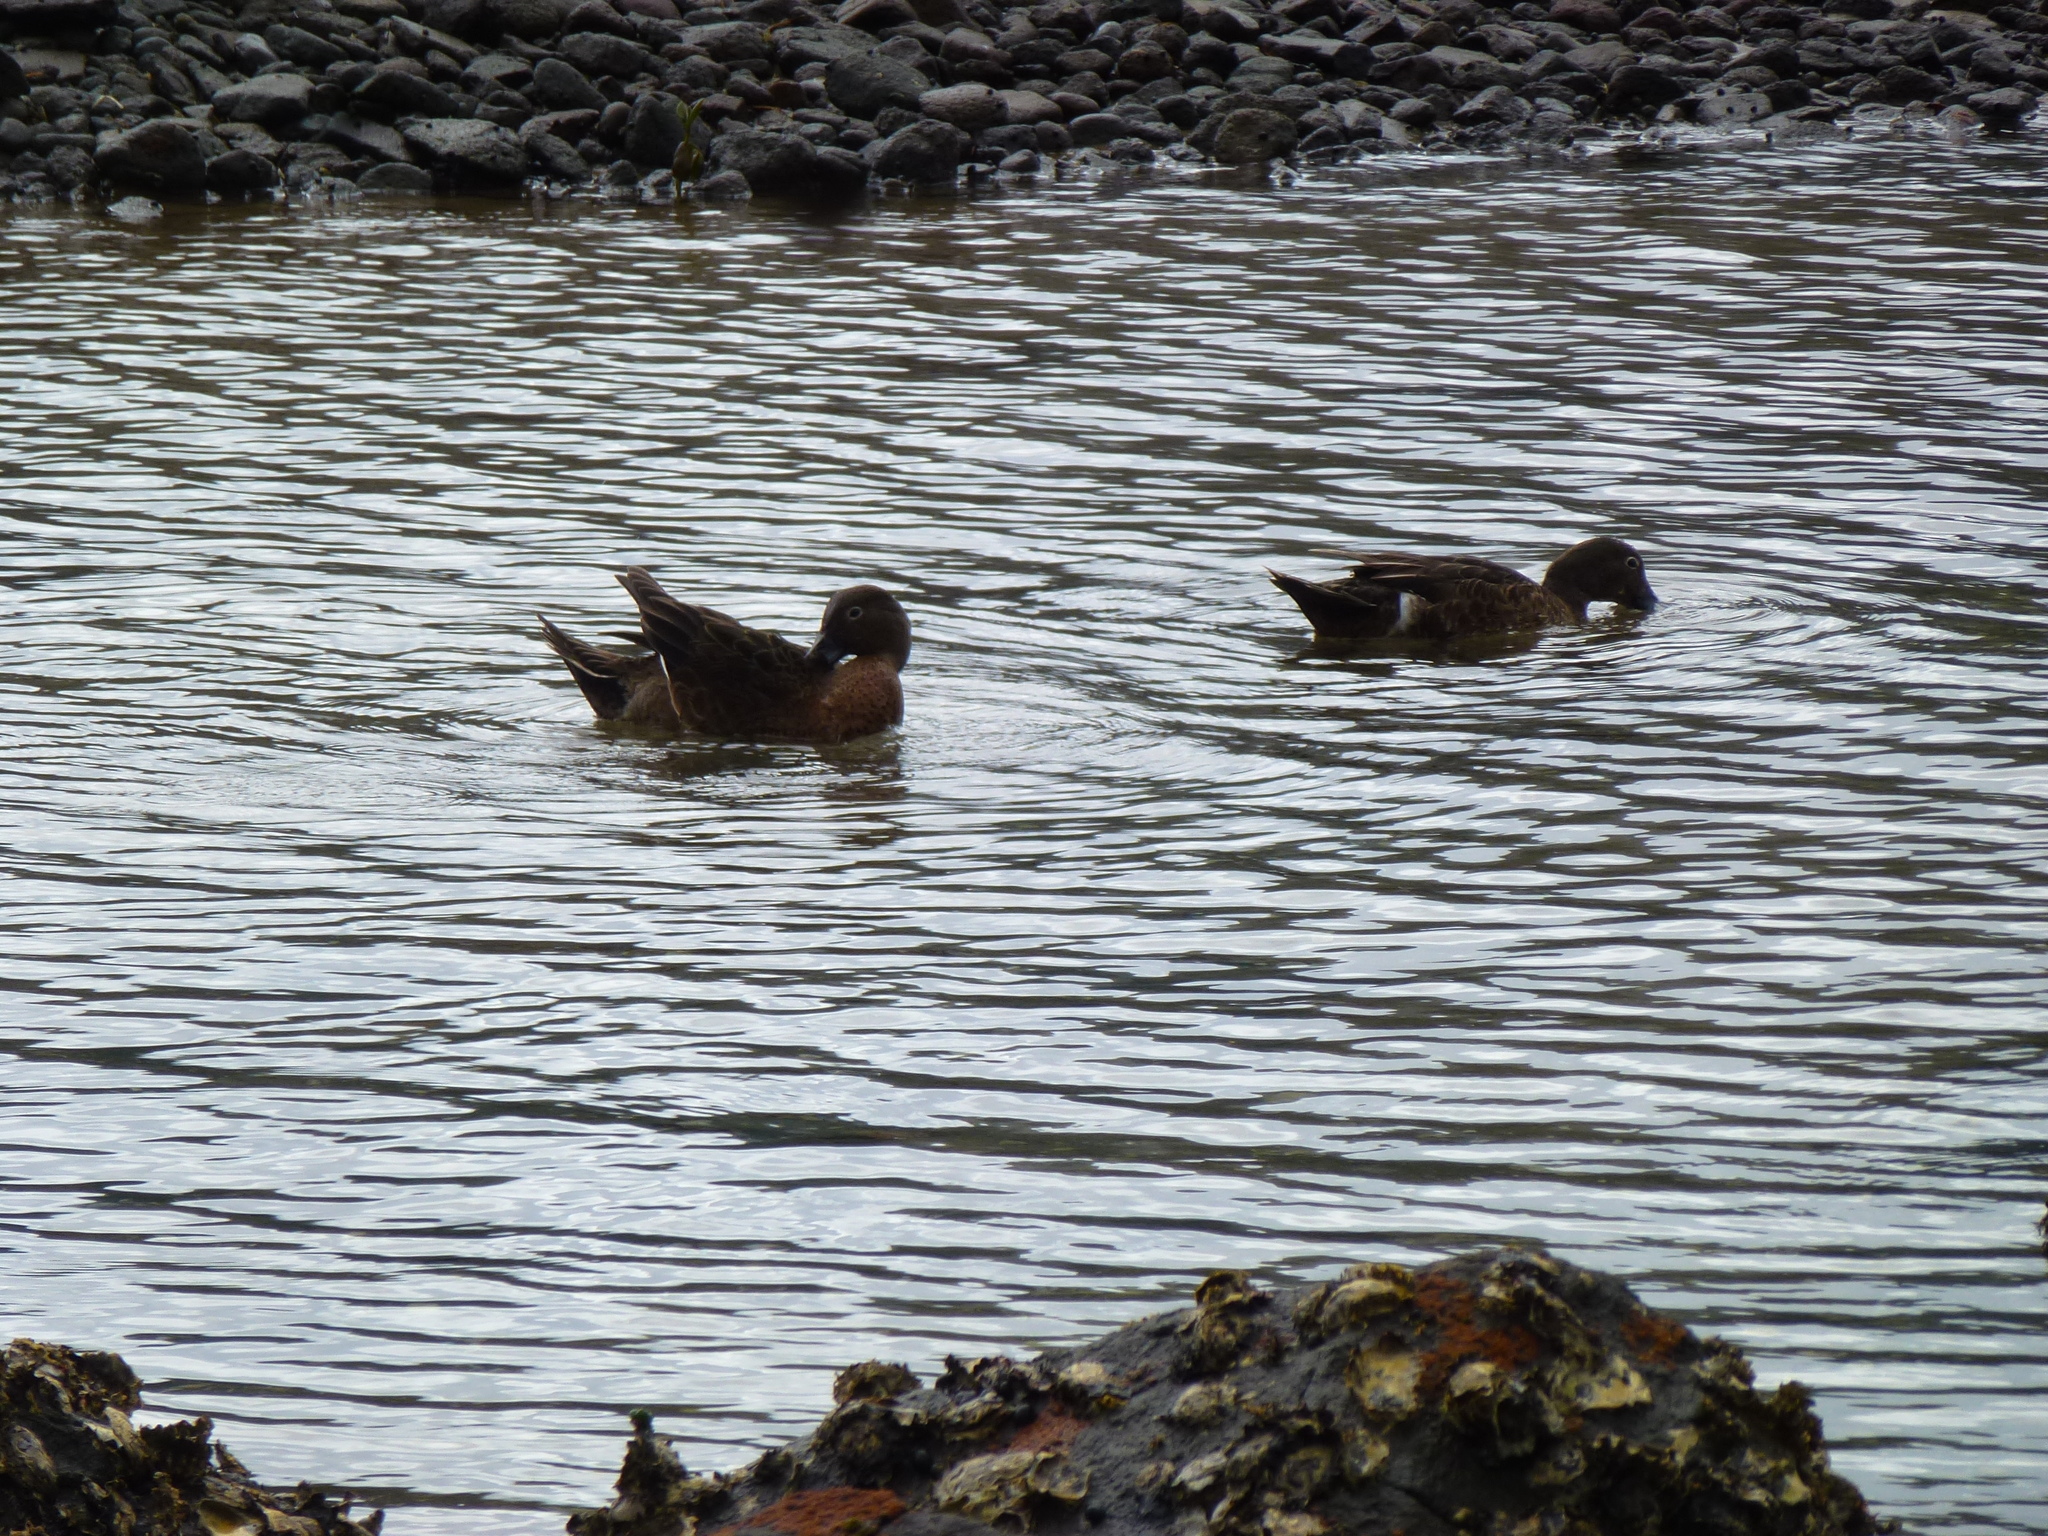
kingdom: Animalia
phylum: Chordata
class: Aves
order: Anseriformes
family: Anatidae
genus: Anas
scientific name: Anas chlorotis
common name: Brown teal
